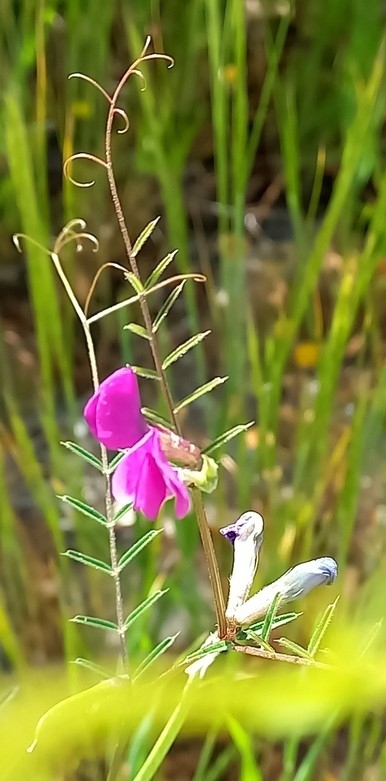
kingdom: Plantae
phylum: Tracheophyta
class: Magnoliopsida
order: Fabales
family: Fabaceae
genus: Vicia
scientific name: Vicia sativa
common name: Garden vetch
